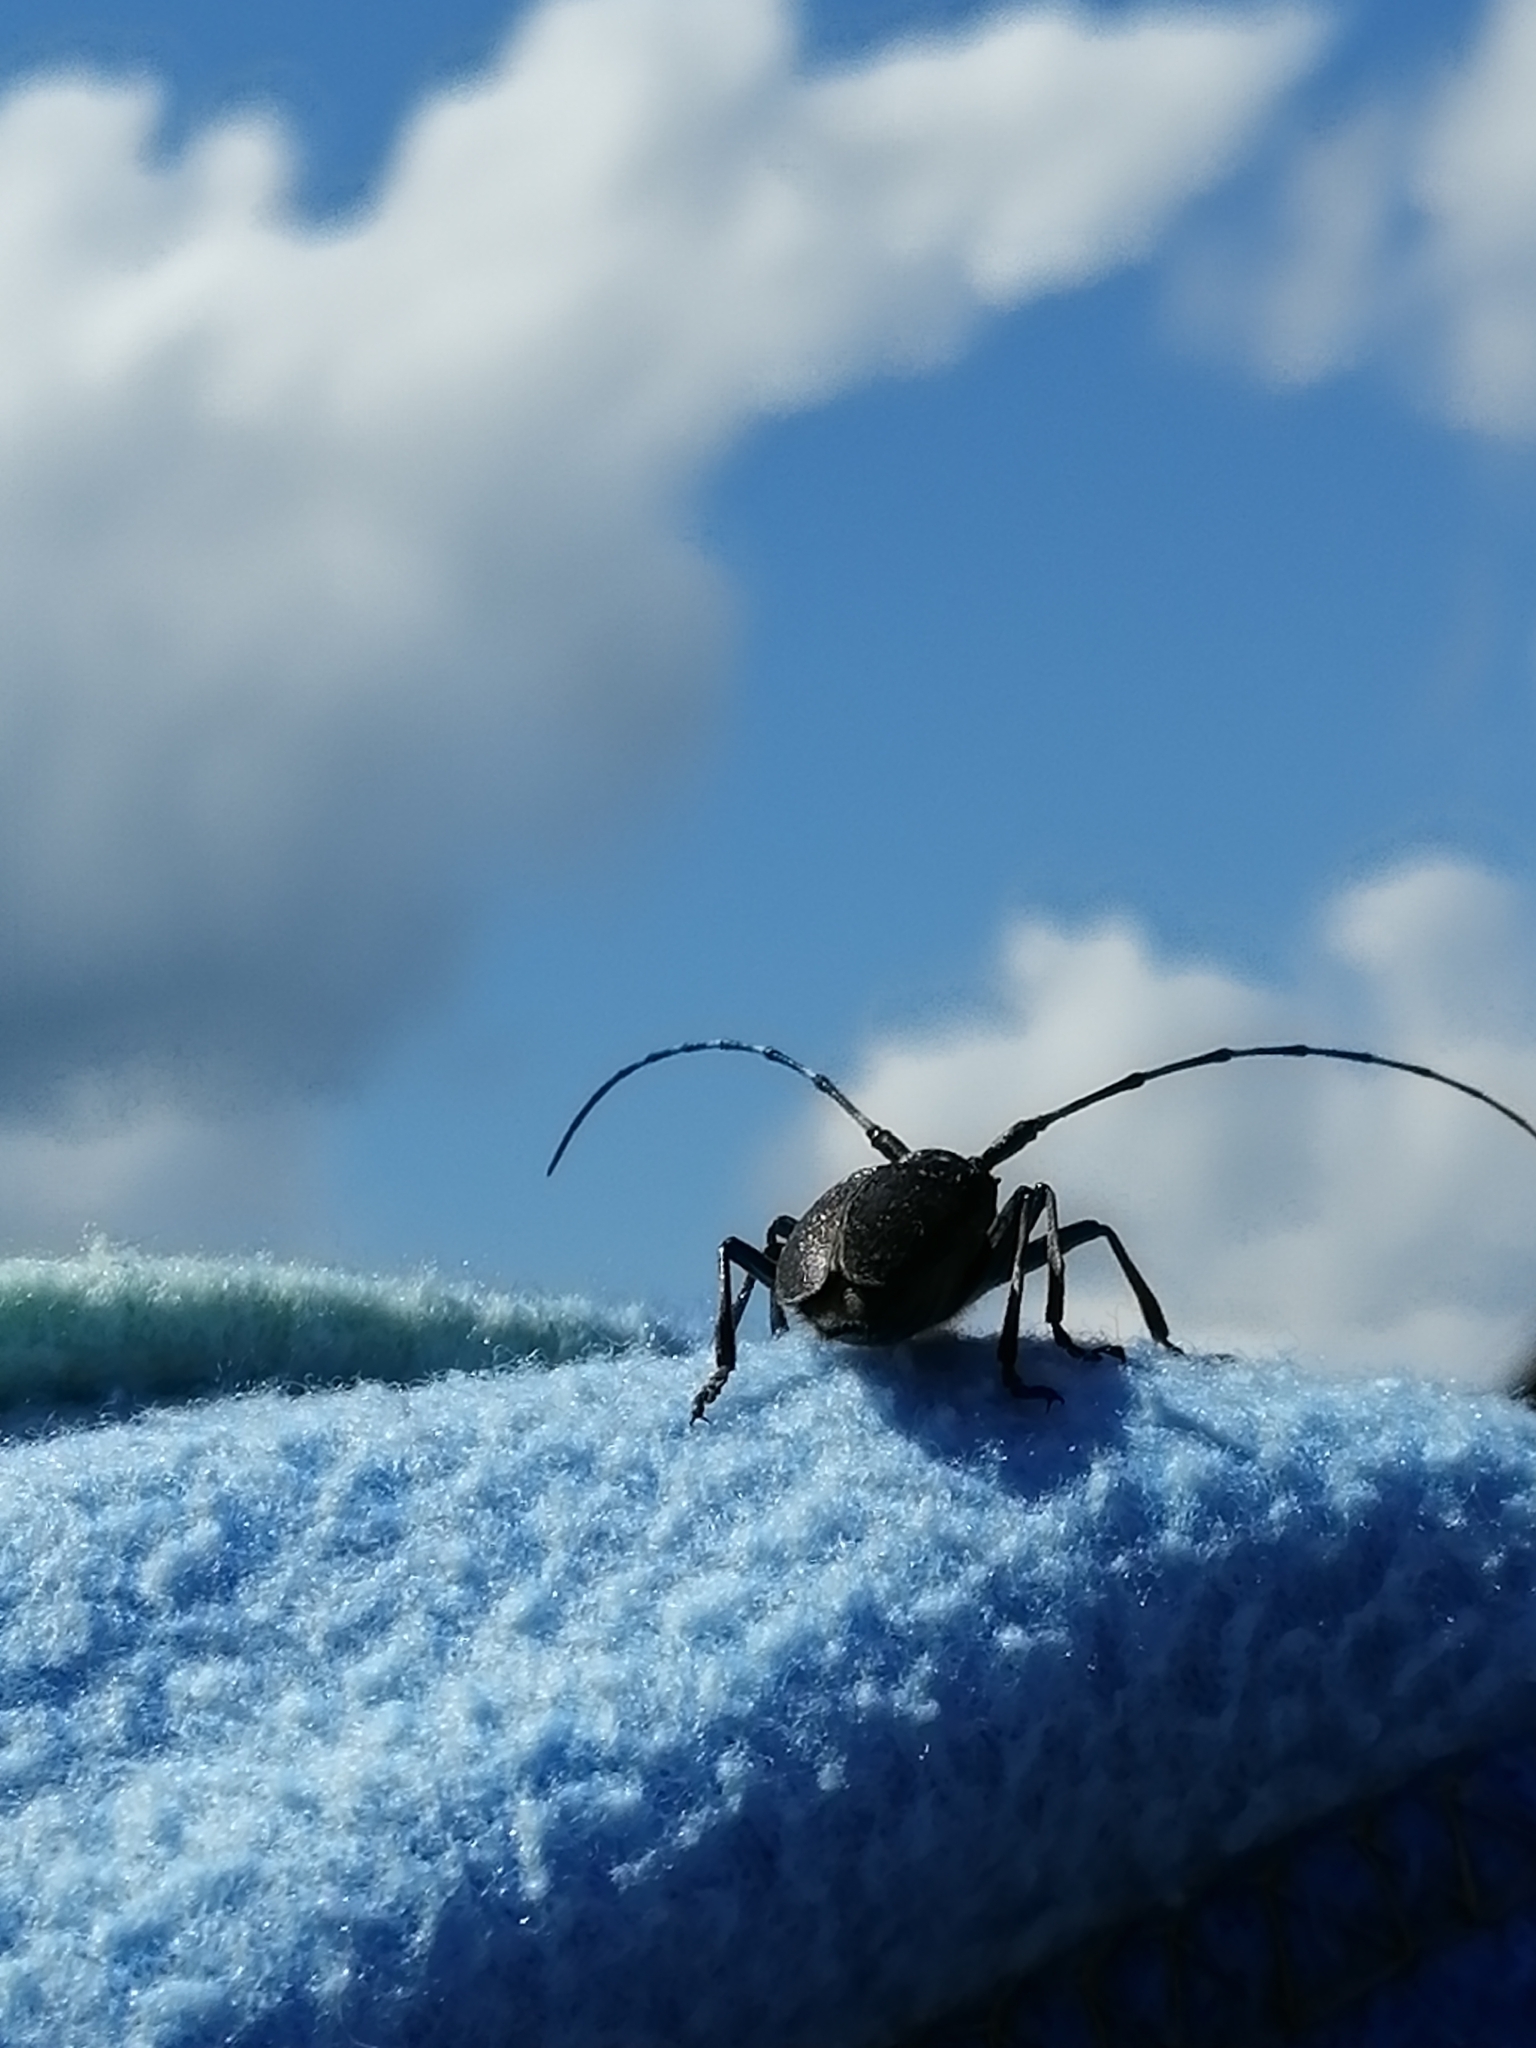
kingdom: Animalia
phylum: Arthropoda
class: Insecta
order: Coleoptera
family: Cerambycidae
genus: Monochamus
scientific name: Monochamus sutor
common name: Pine sawyer
